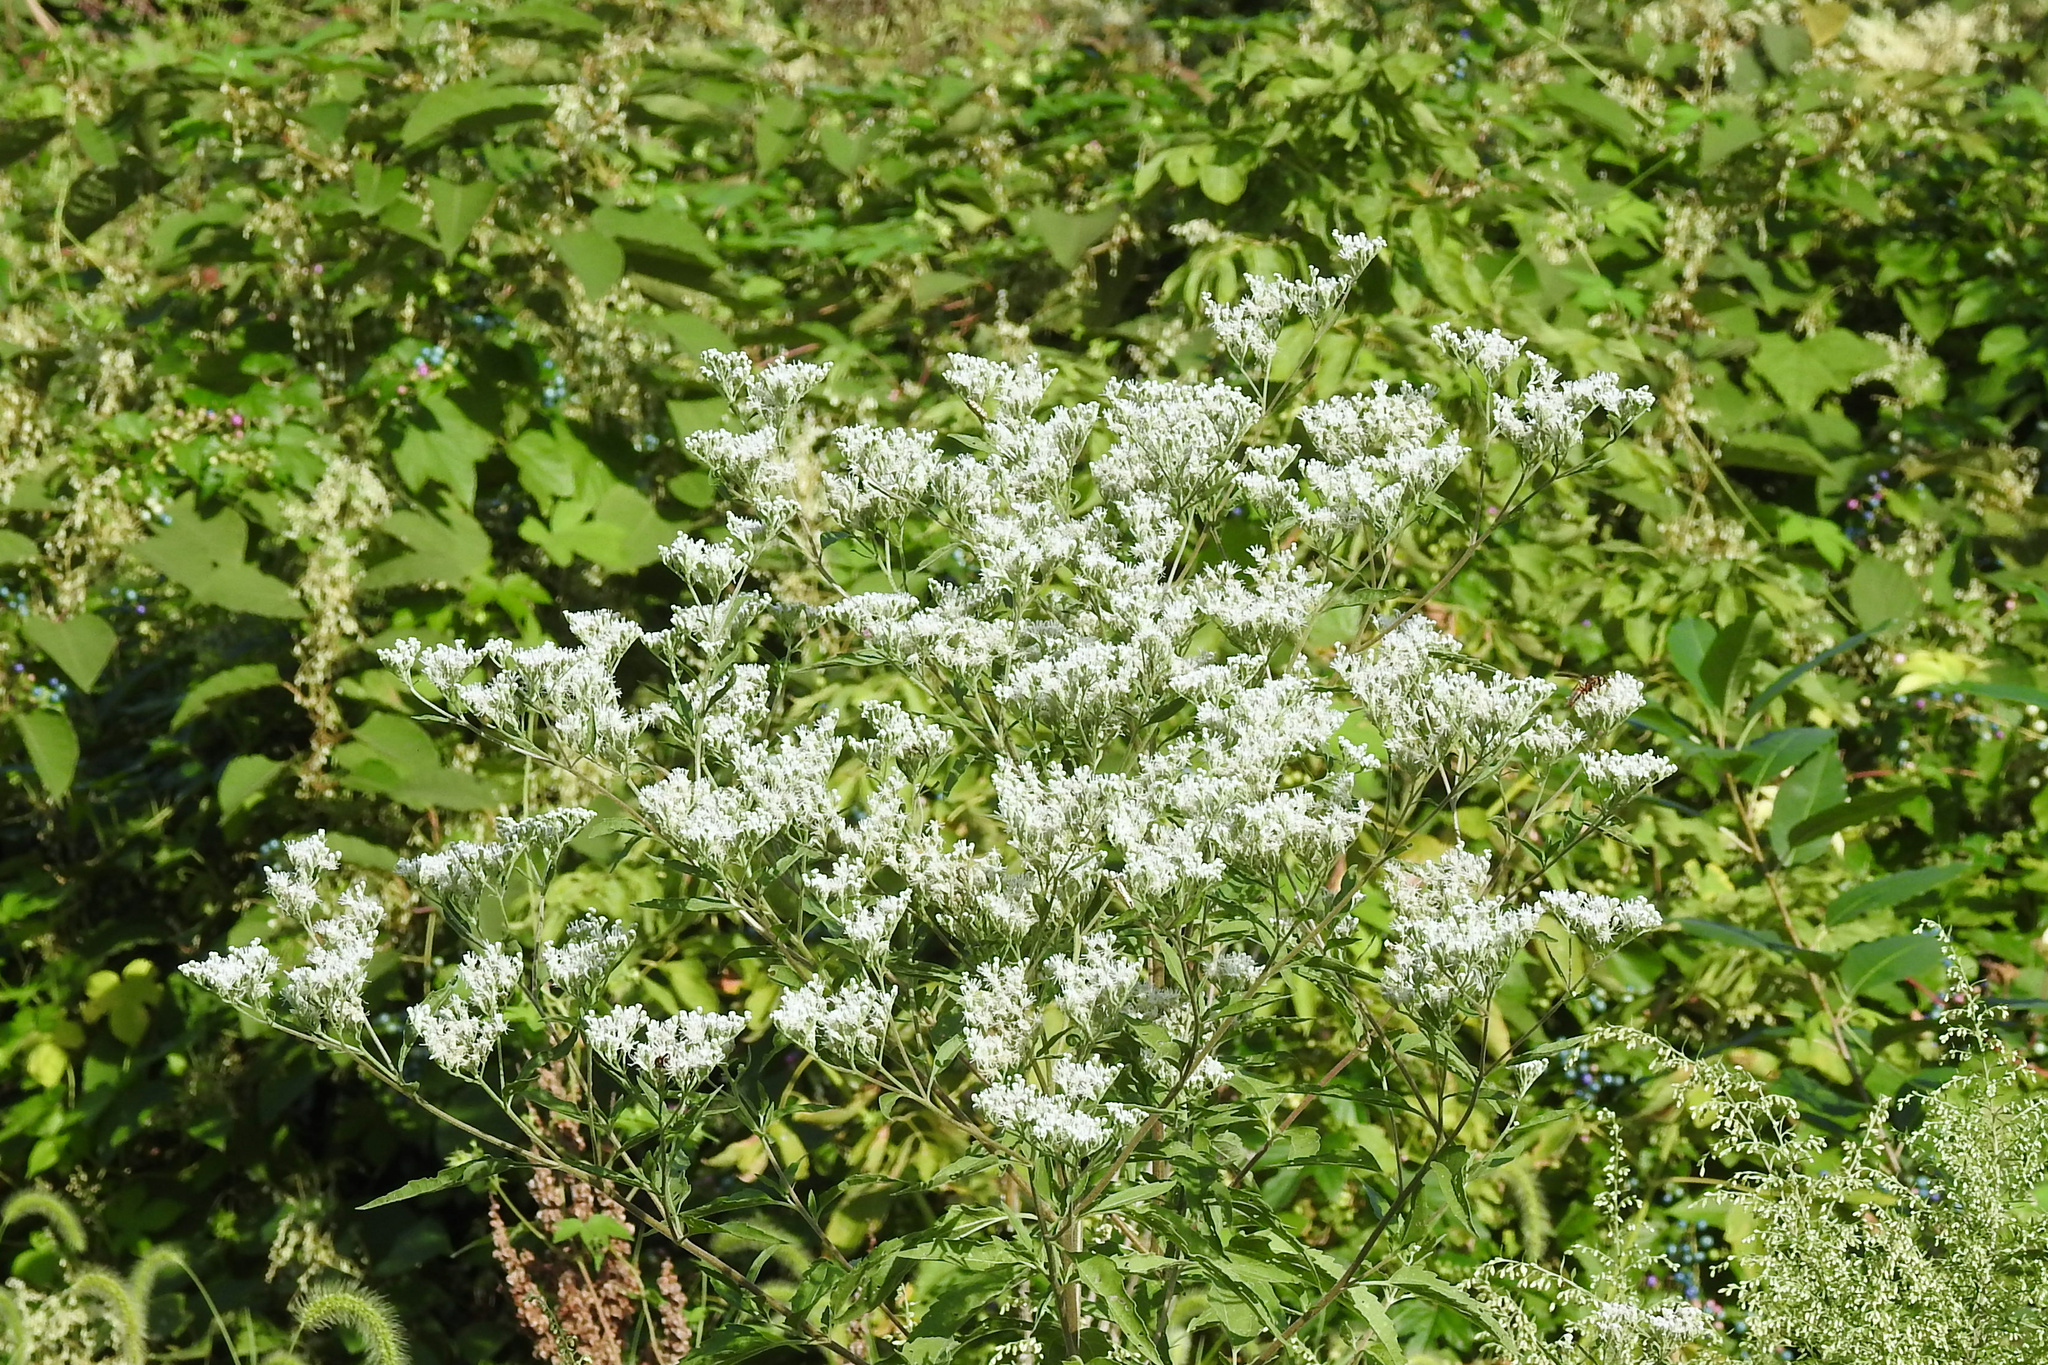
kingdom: Plantae
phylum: Tracheophyta
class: Magnoliopsida
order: Asterales
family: Asteraceae
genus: Eupatorium
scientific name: Eupatorium serotinum
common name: Late boneset
